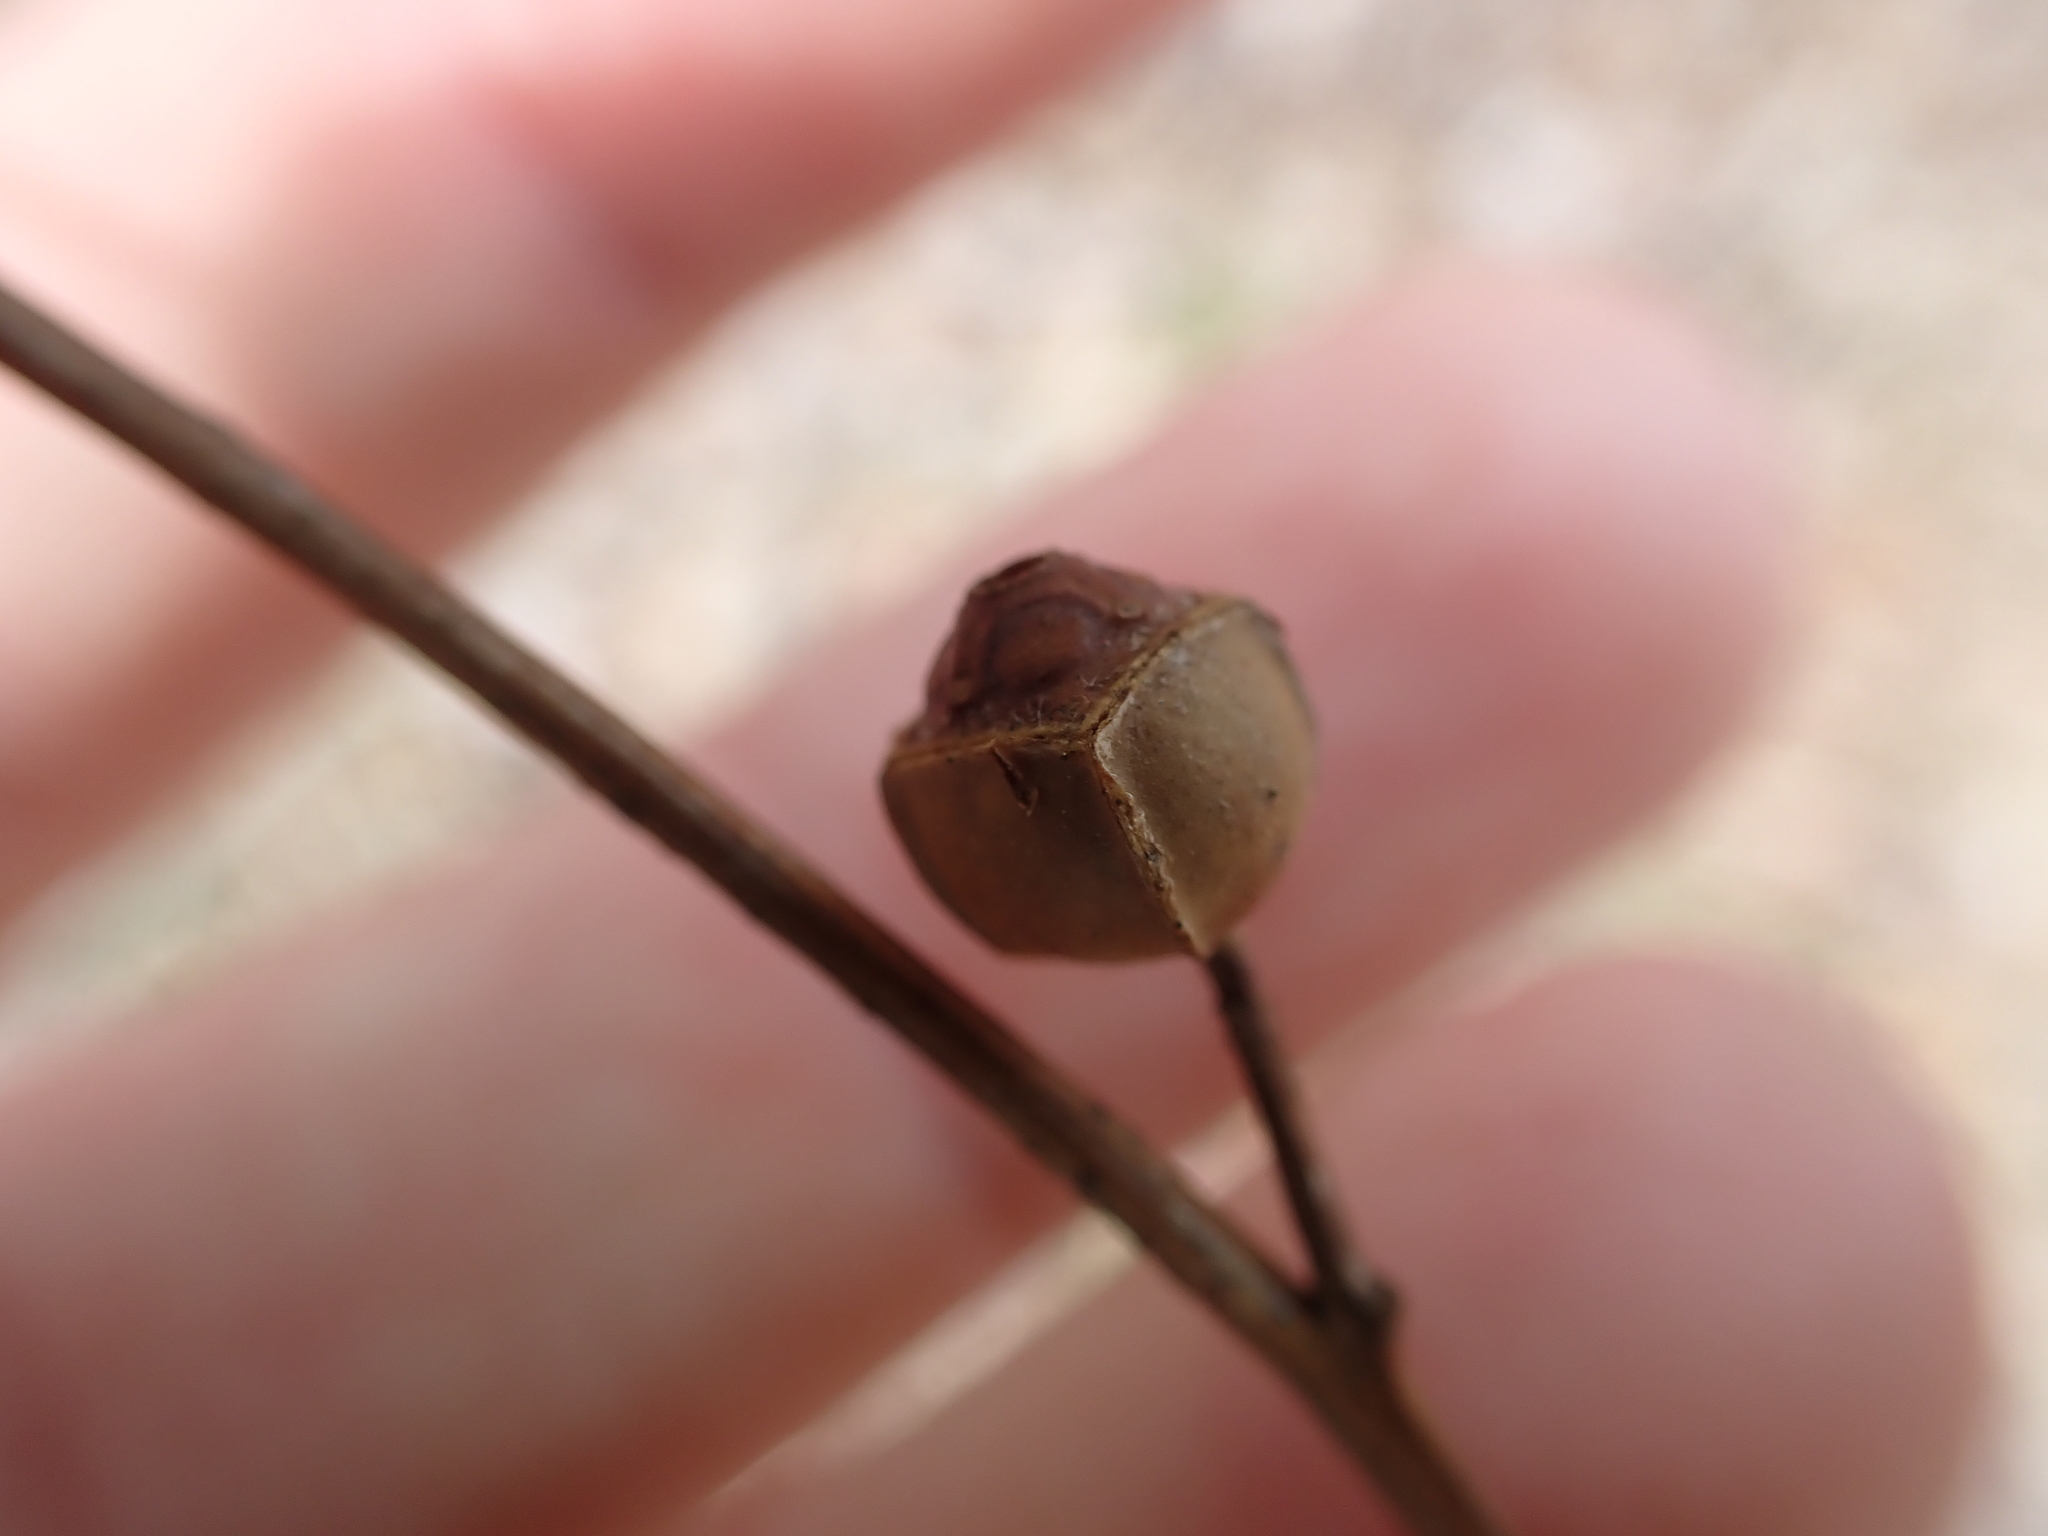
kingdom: Plantae
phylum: Tracheophyta
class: Magnoliopsida
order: Myrtales
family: Onagraceae
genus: Ludwigia
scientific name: Ludwigia alternifolia
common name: Rattlebox
